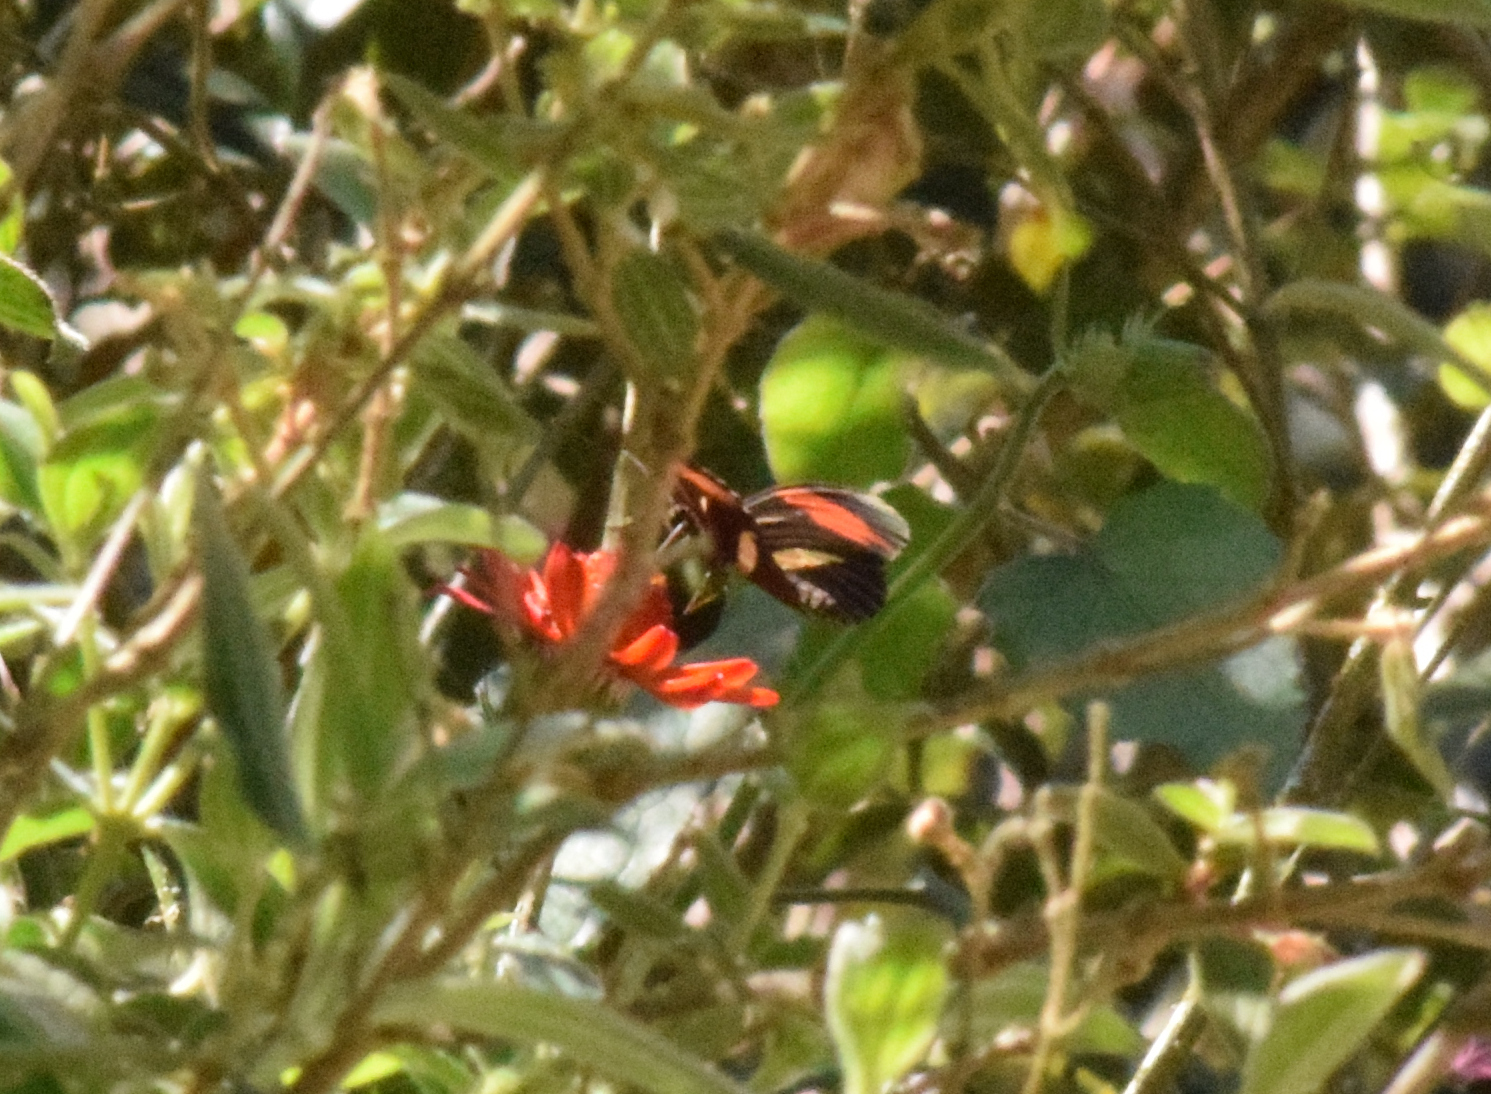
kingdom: Animalia
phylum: Arthropoda
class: Insecta
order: Lepidoptera
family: Nymphalidae
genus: Heliconius
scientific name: Heliconius erato
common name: Common patch longwing
